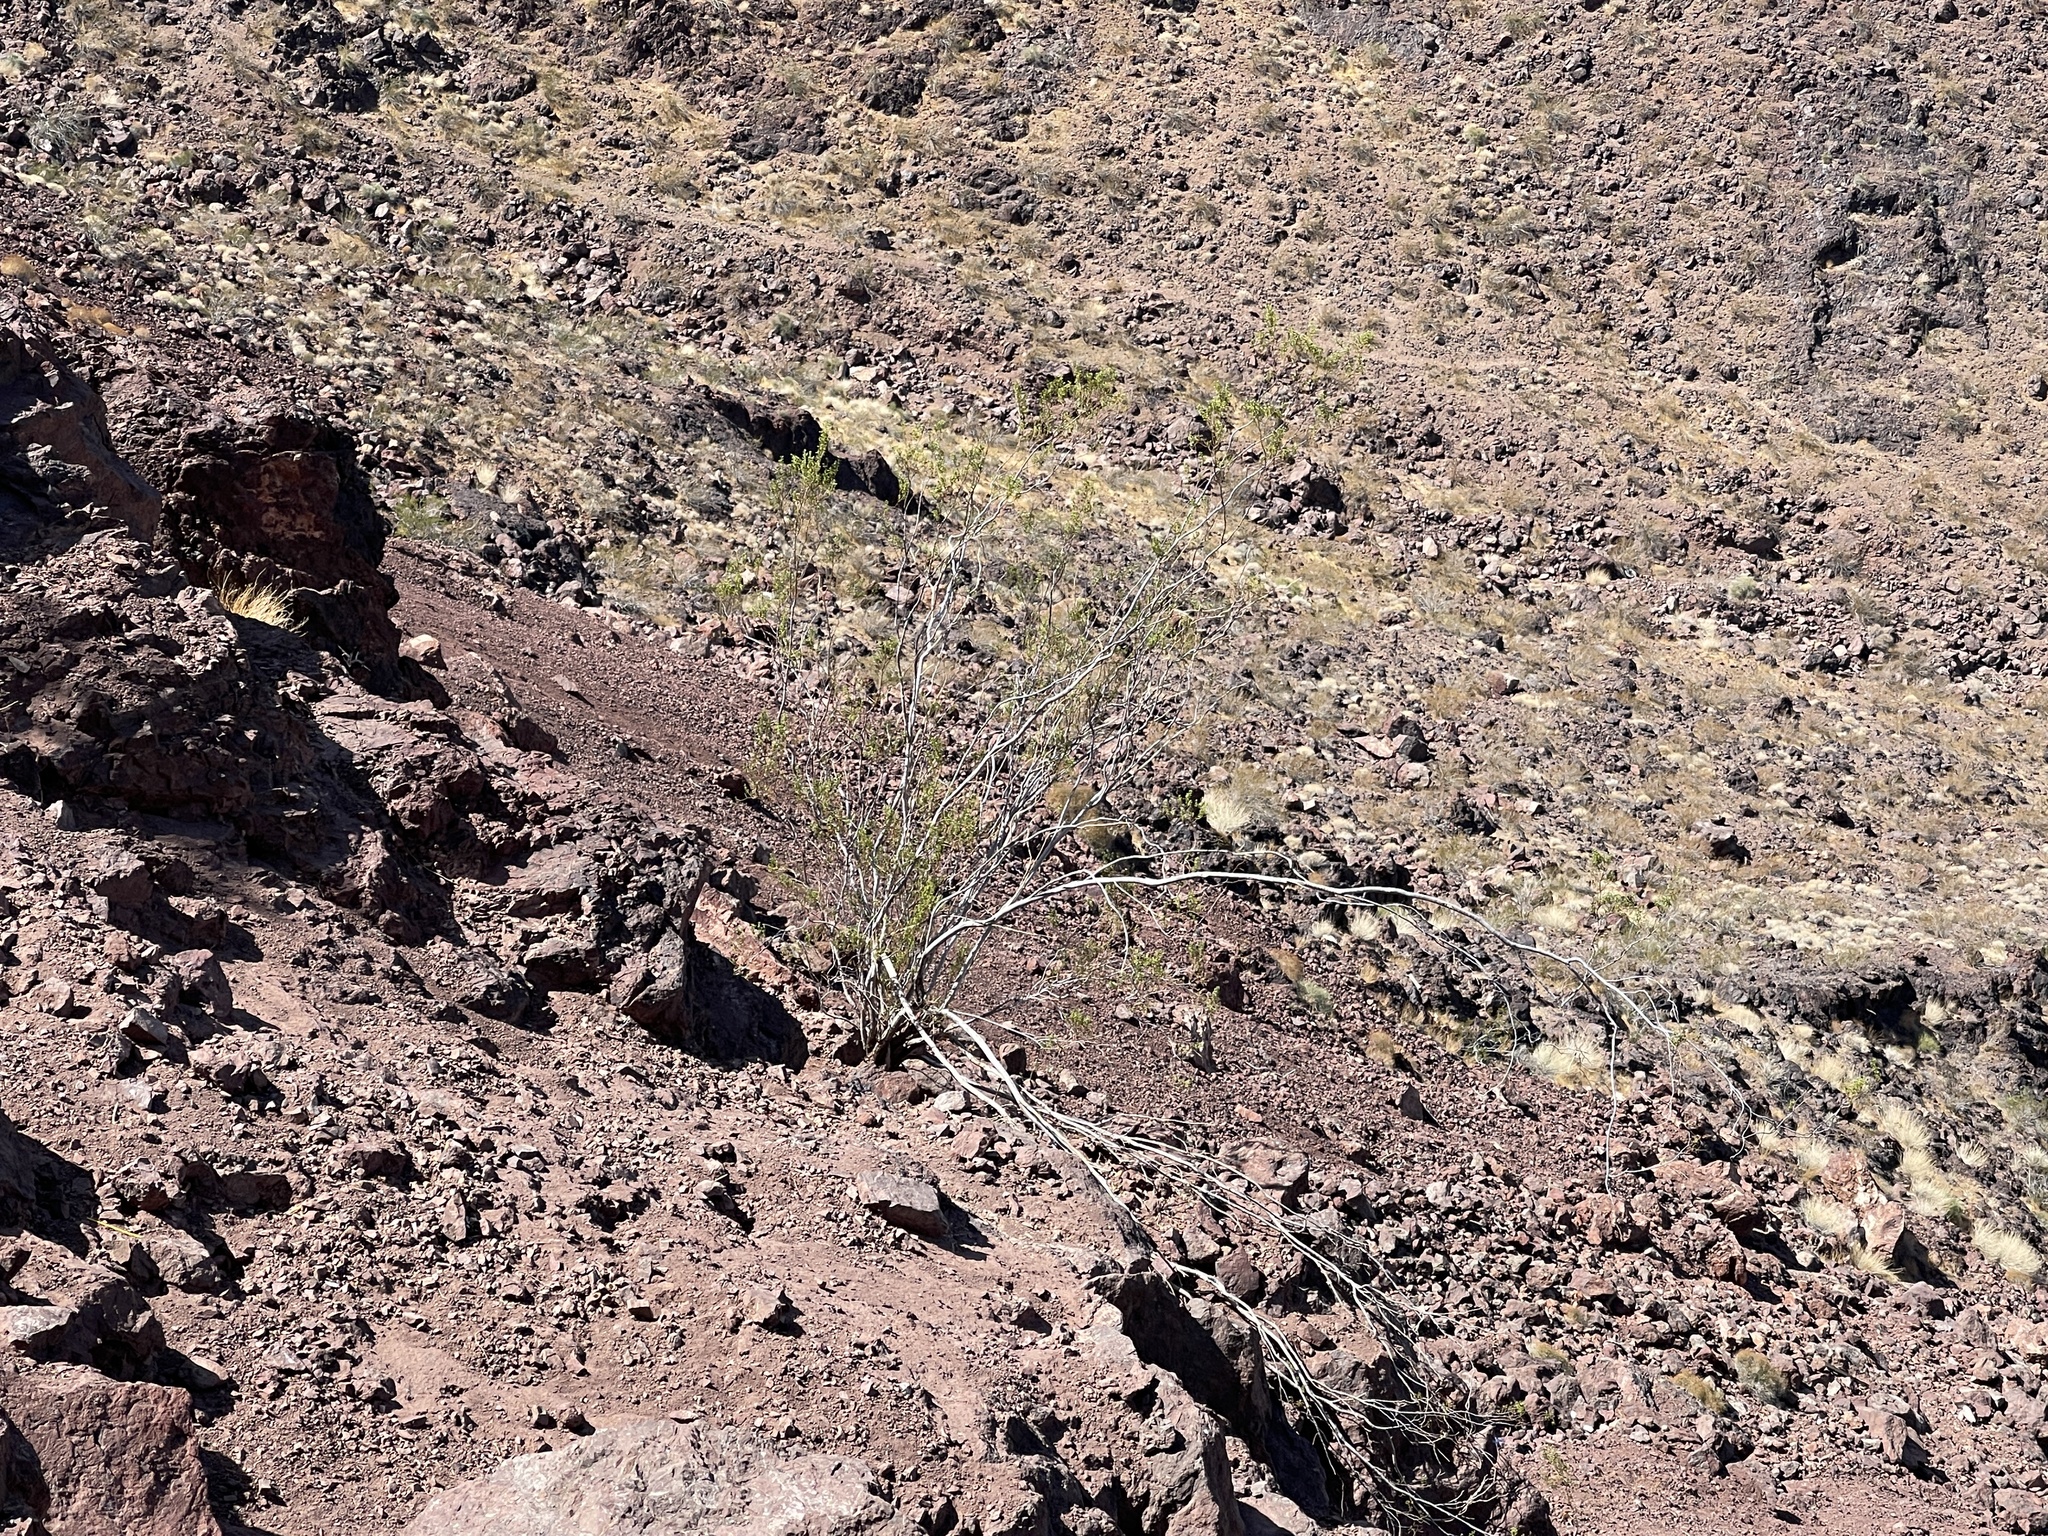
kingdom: Plantae
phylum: Tracheophyta
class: Magnoliopsida
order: Zygophyllales
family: Zygophyllaceae
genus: Larrea
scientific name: Larrea tridentata
